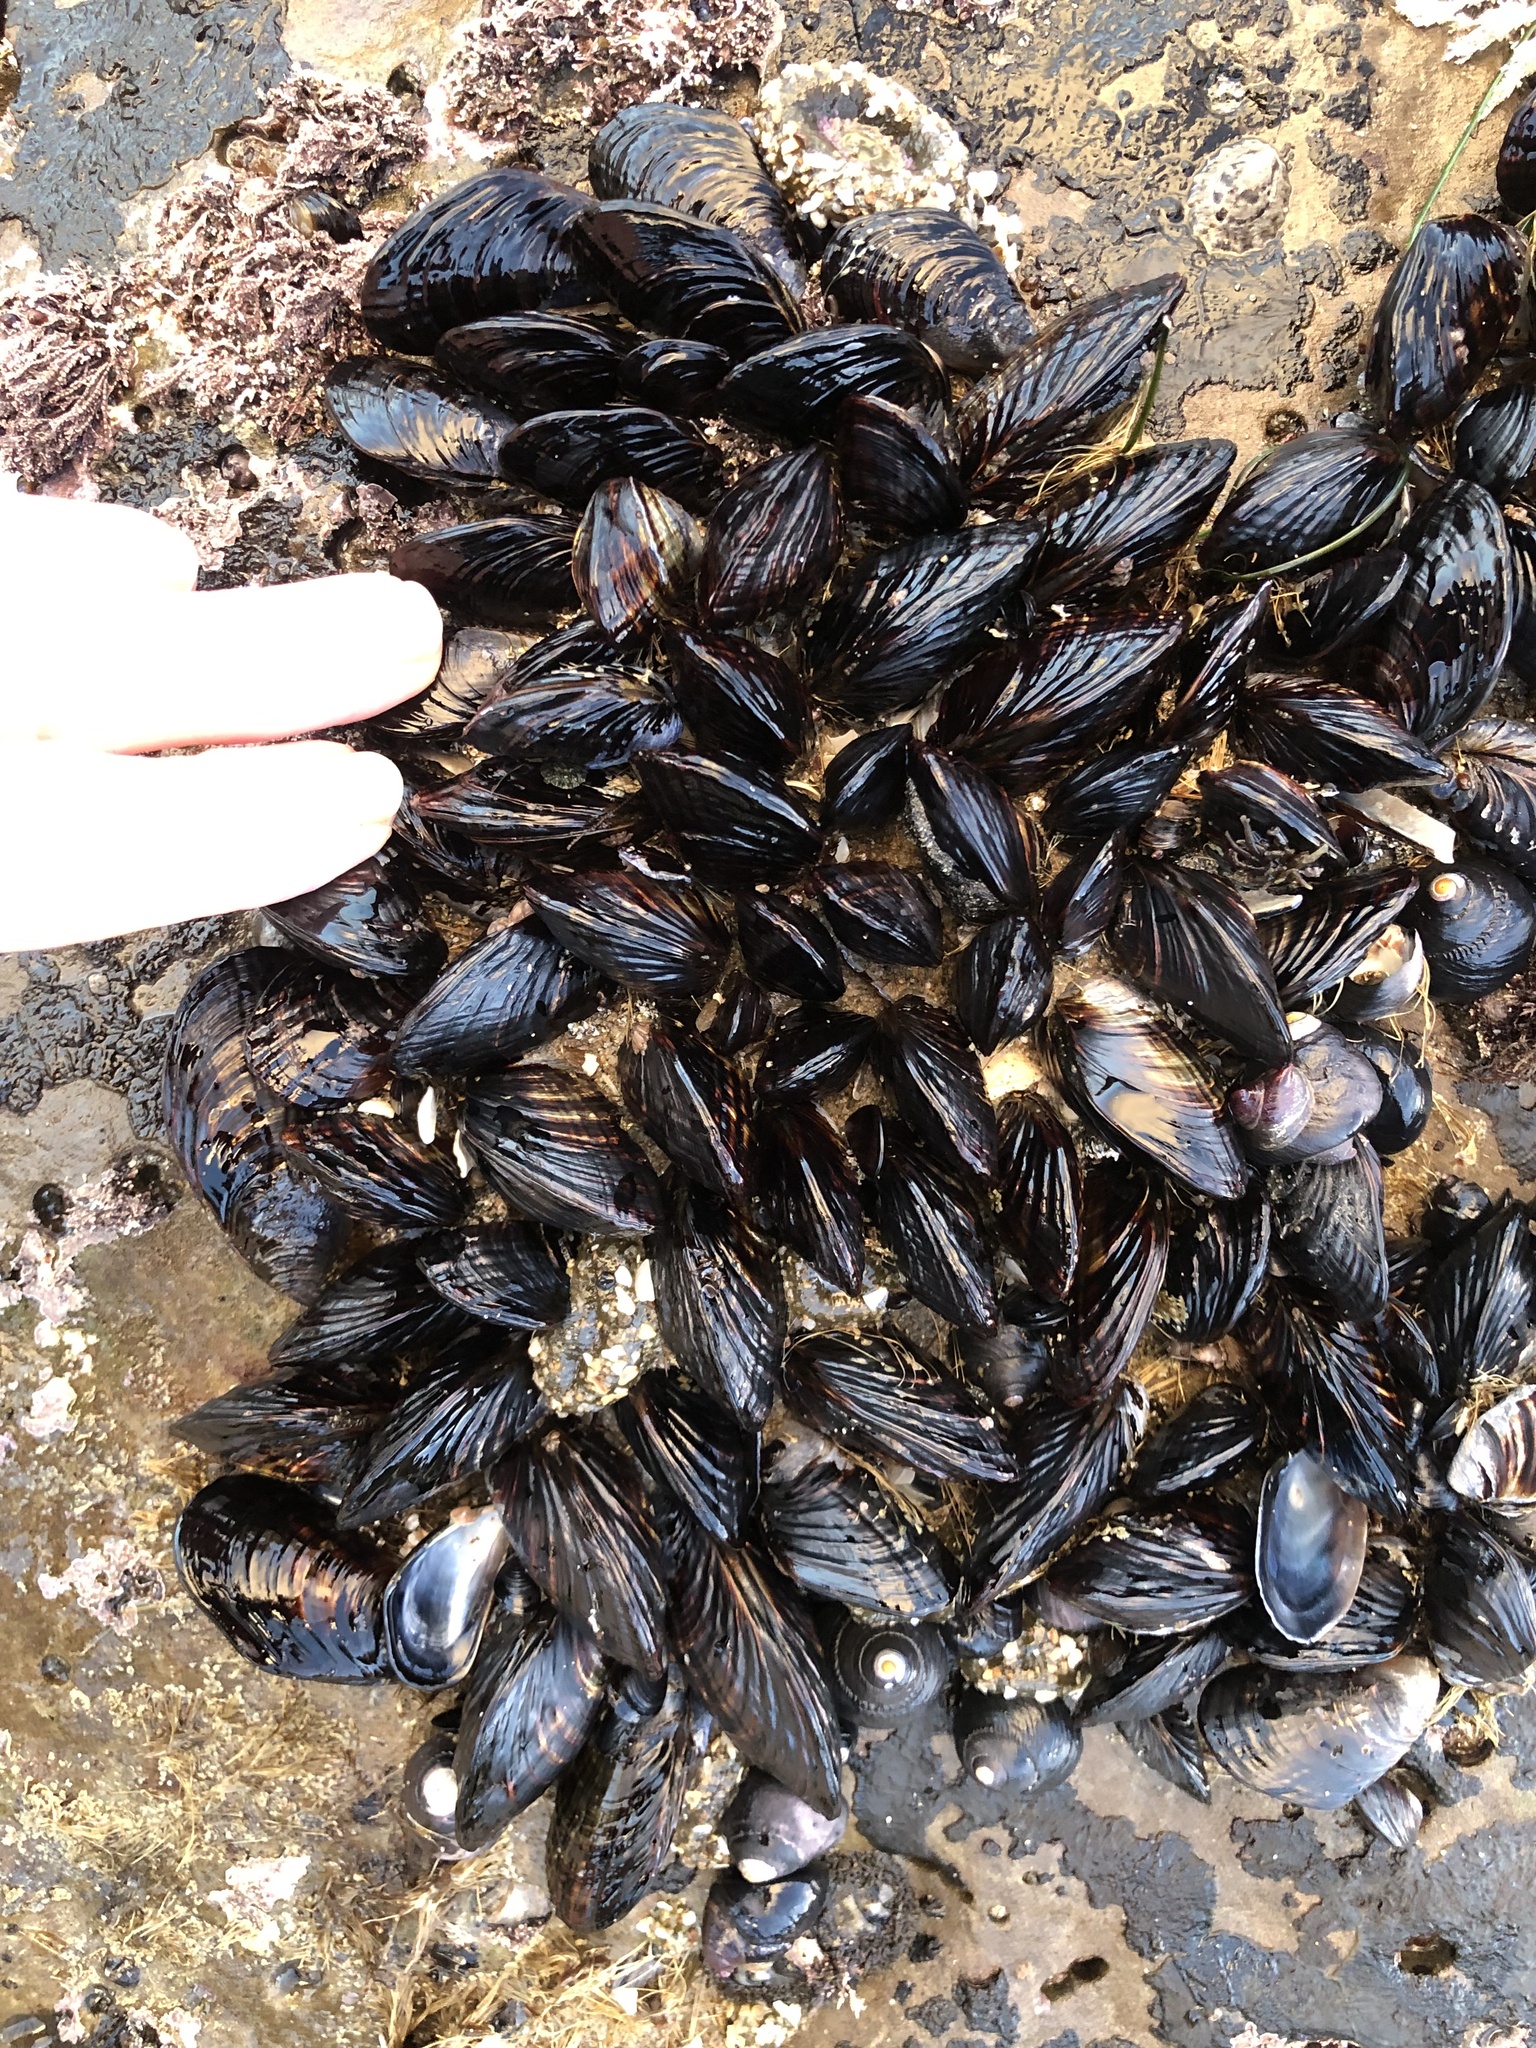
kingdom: Animalia
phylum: Mollusca
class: Bivalvia
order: Mytilida
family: Mytilidae
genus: Mytilus
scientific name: Mytilus californianus
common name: California mussel
